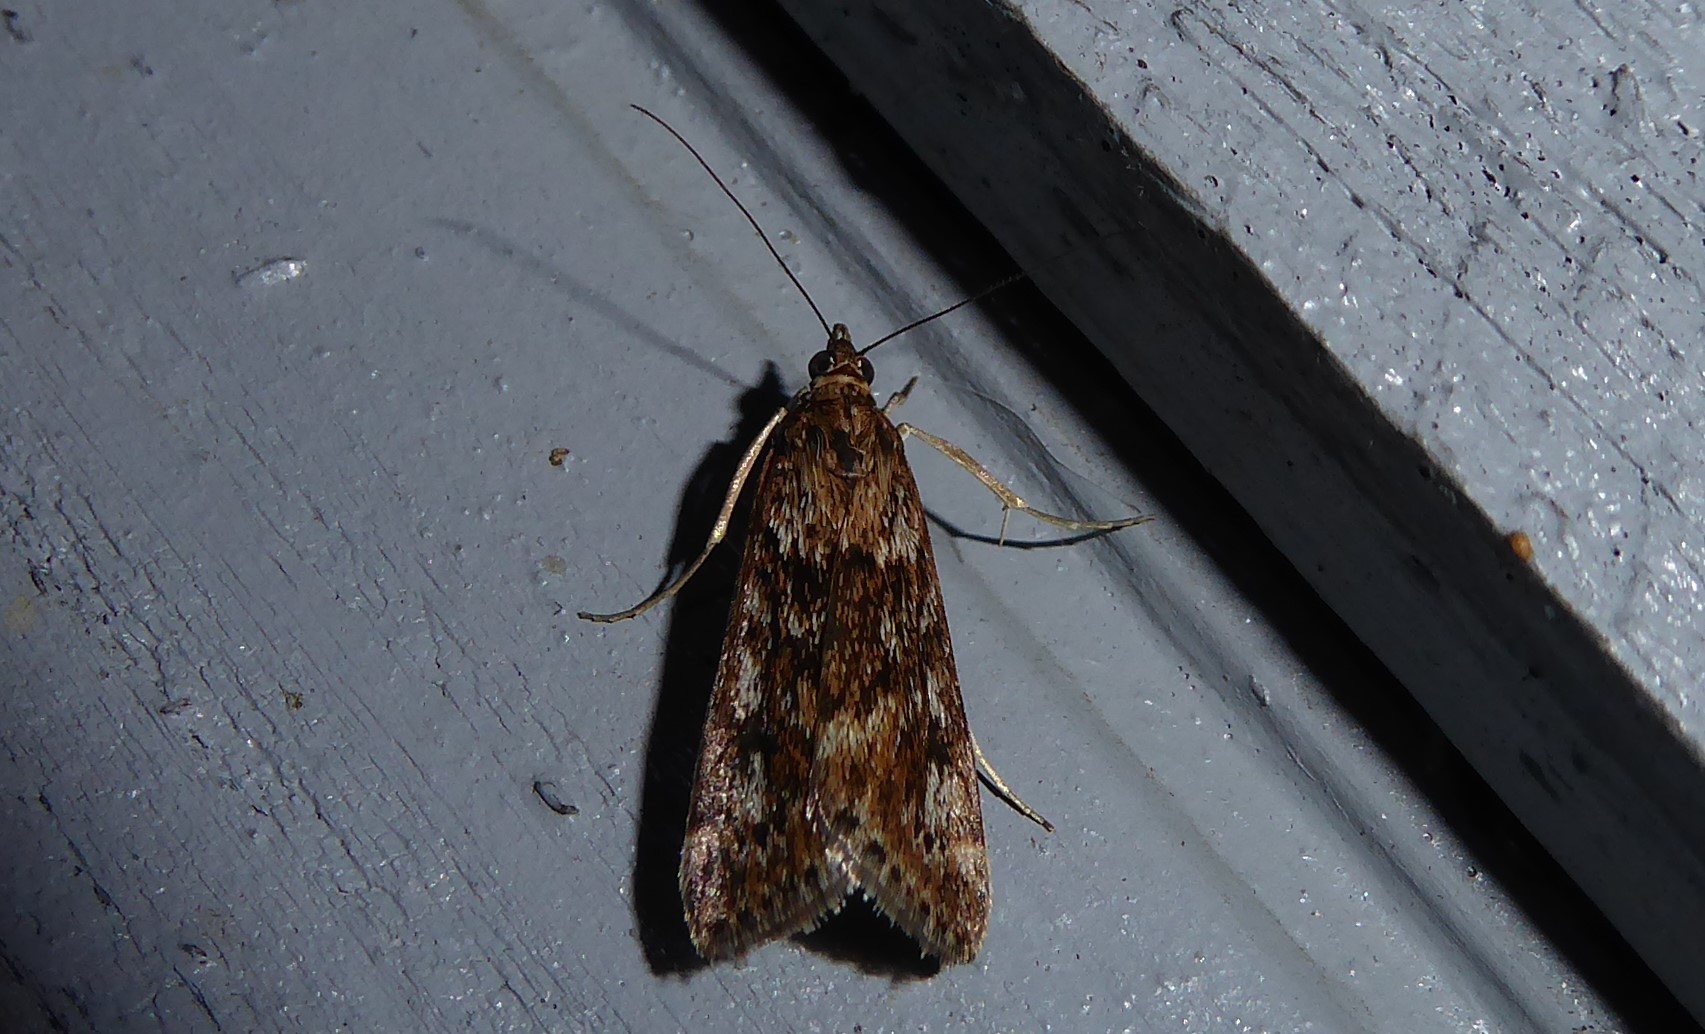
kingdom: Animalia
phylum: Arthropoda
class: Insecta
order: Lepidoptera
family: Crambidae
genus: Achyra
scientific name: Achyra affinitalis
